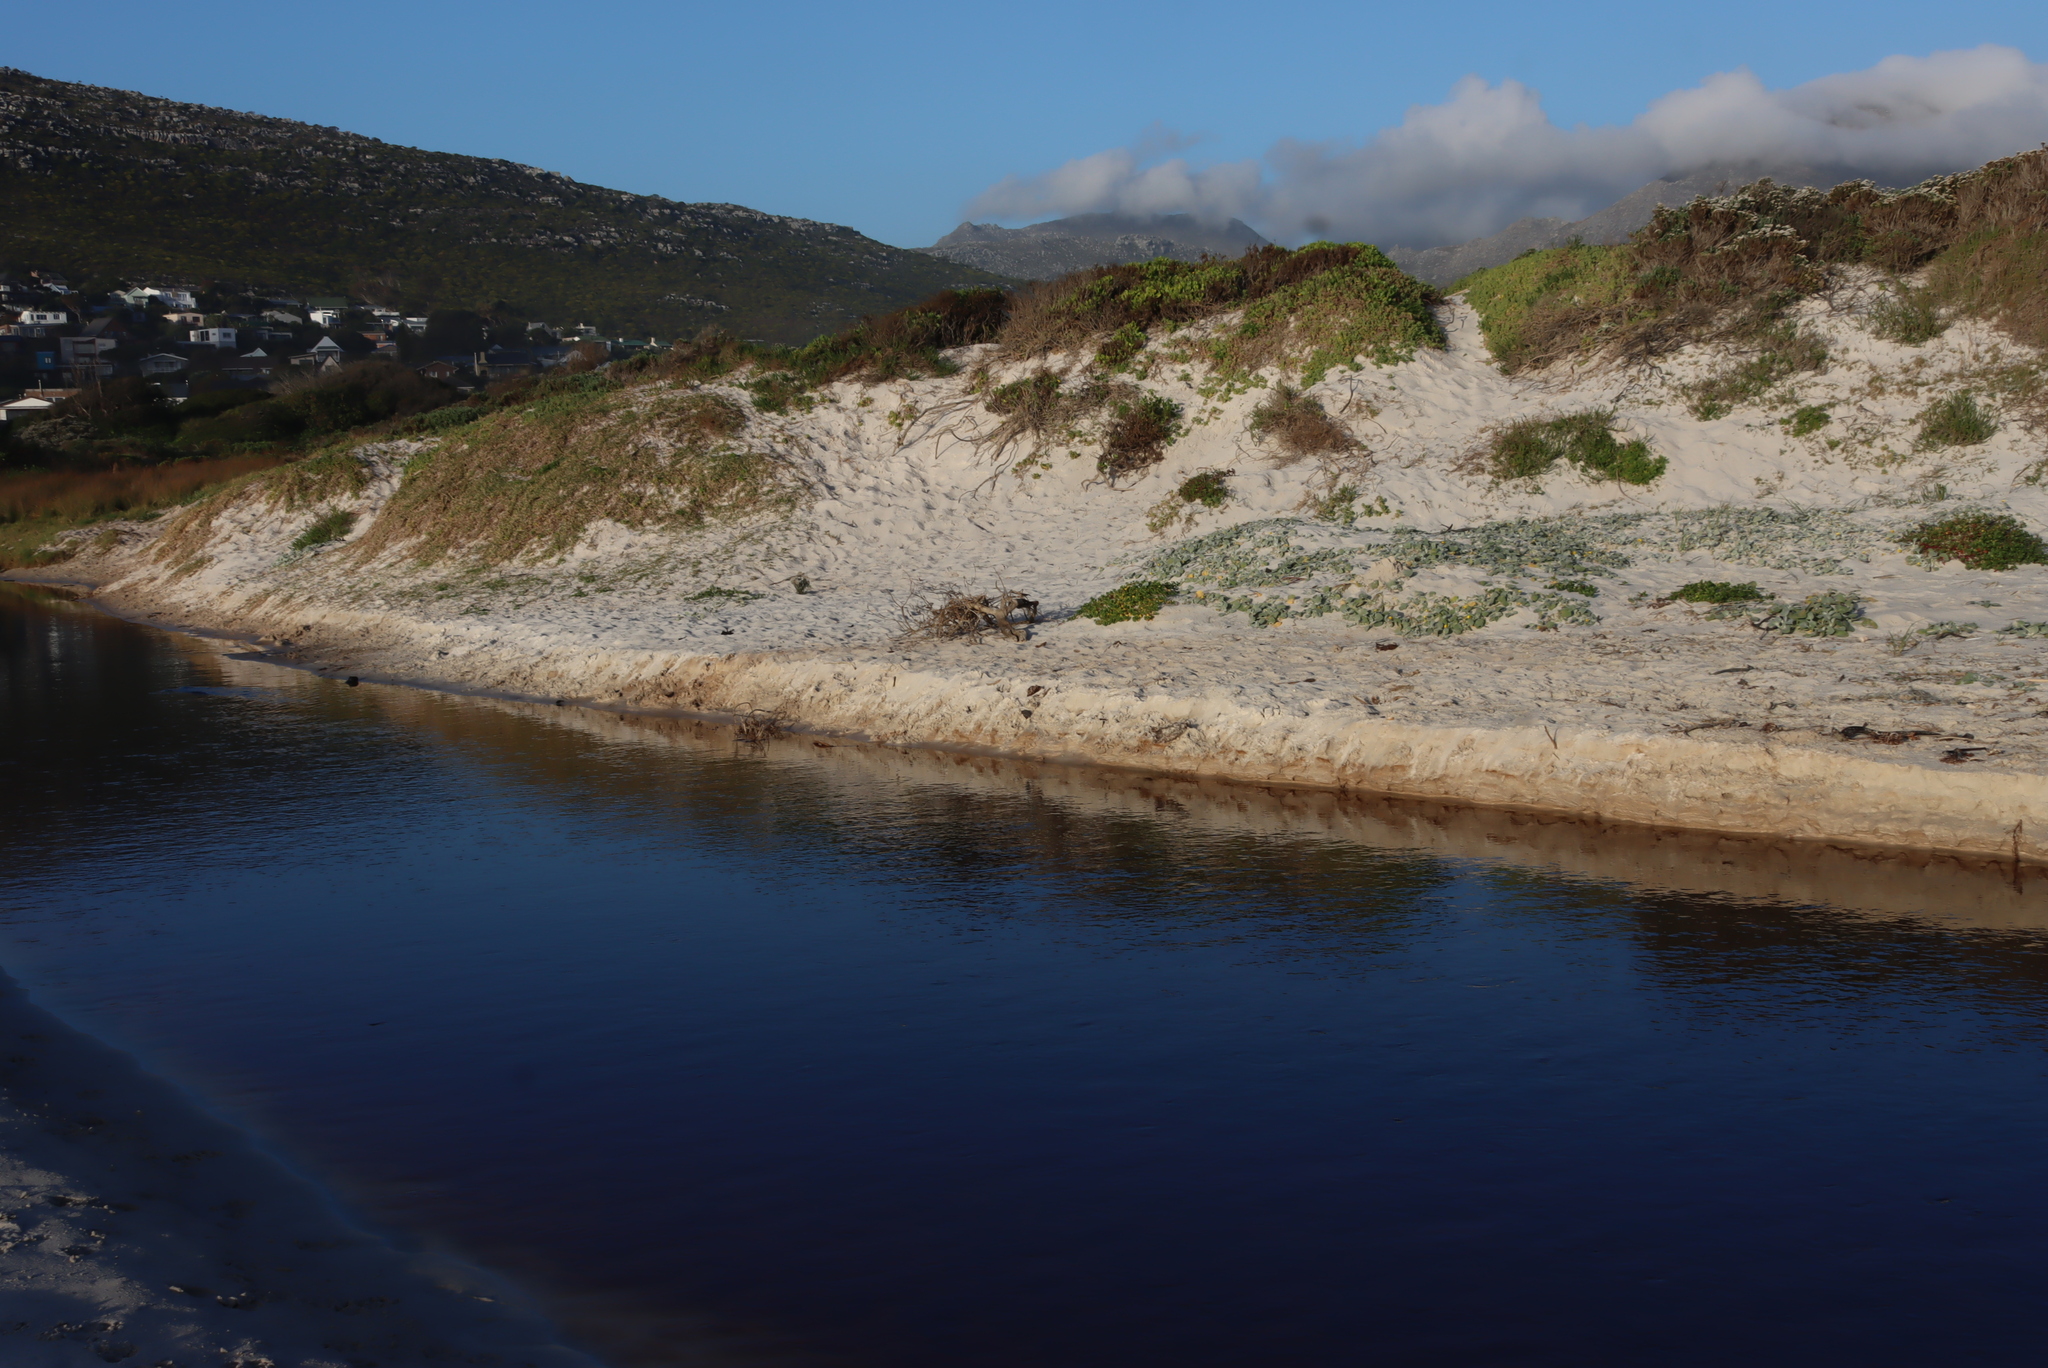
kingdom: Plantae
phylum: Tracheophyta
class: Magnoliopsida
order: Asterales
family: Asteraceae
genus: Arctotheca
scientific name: Arctotheca populifolia
